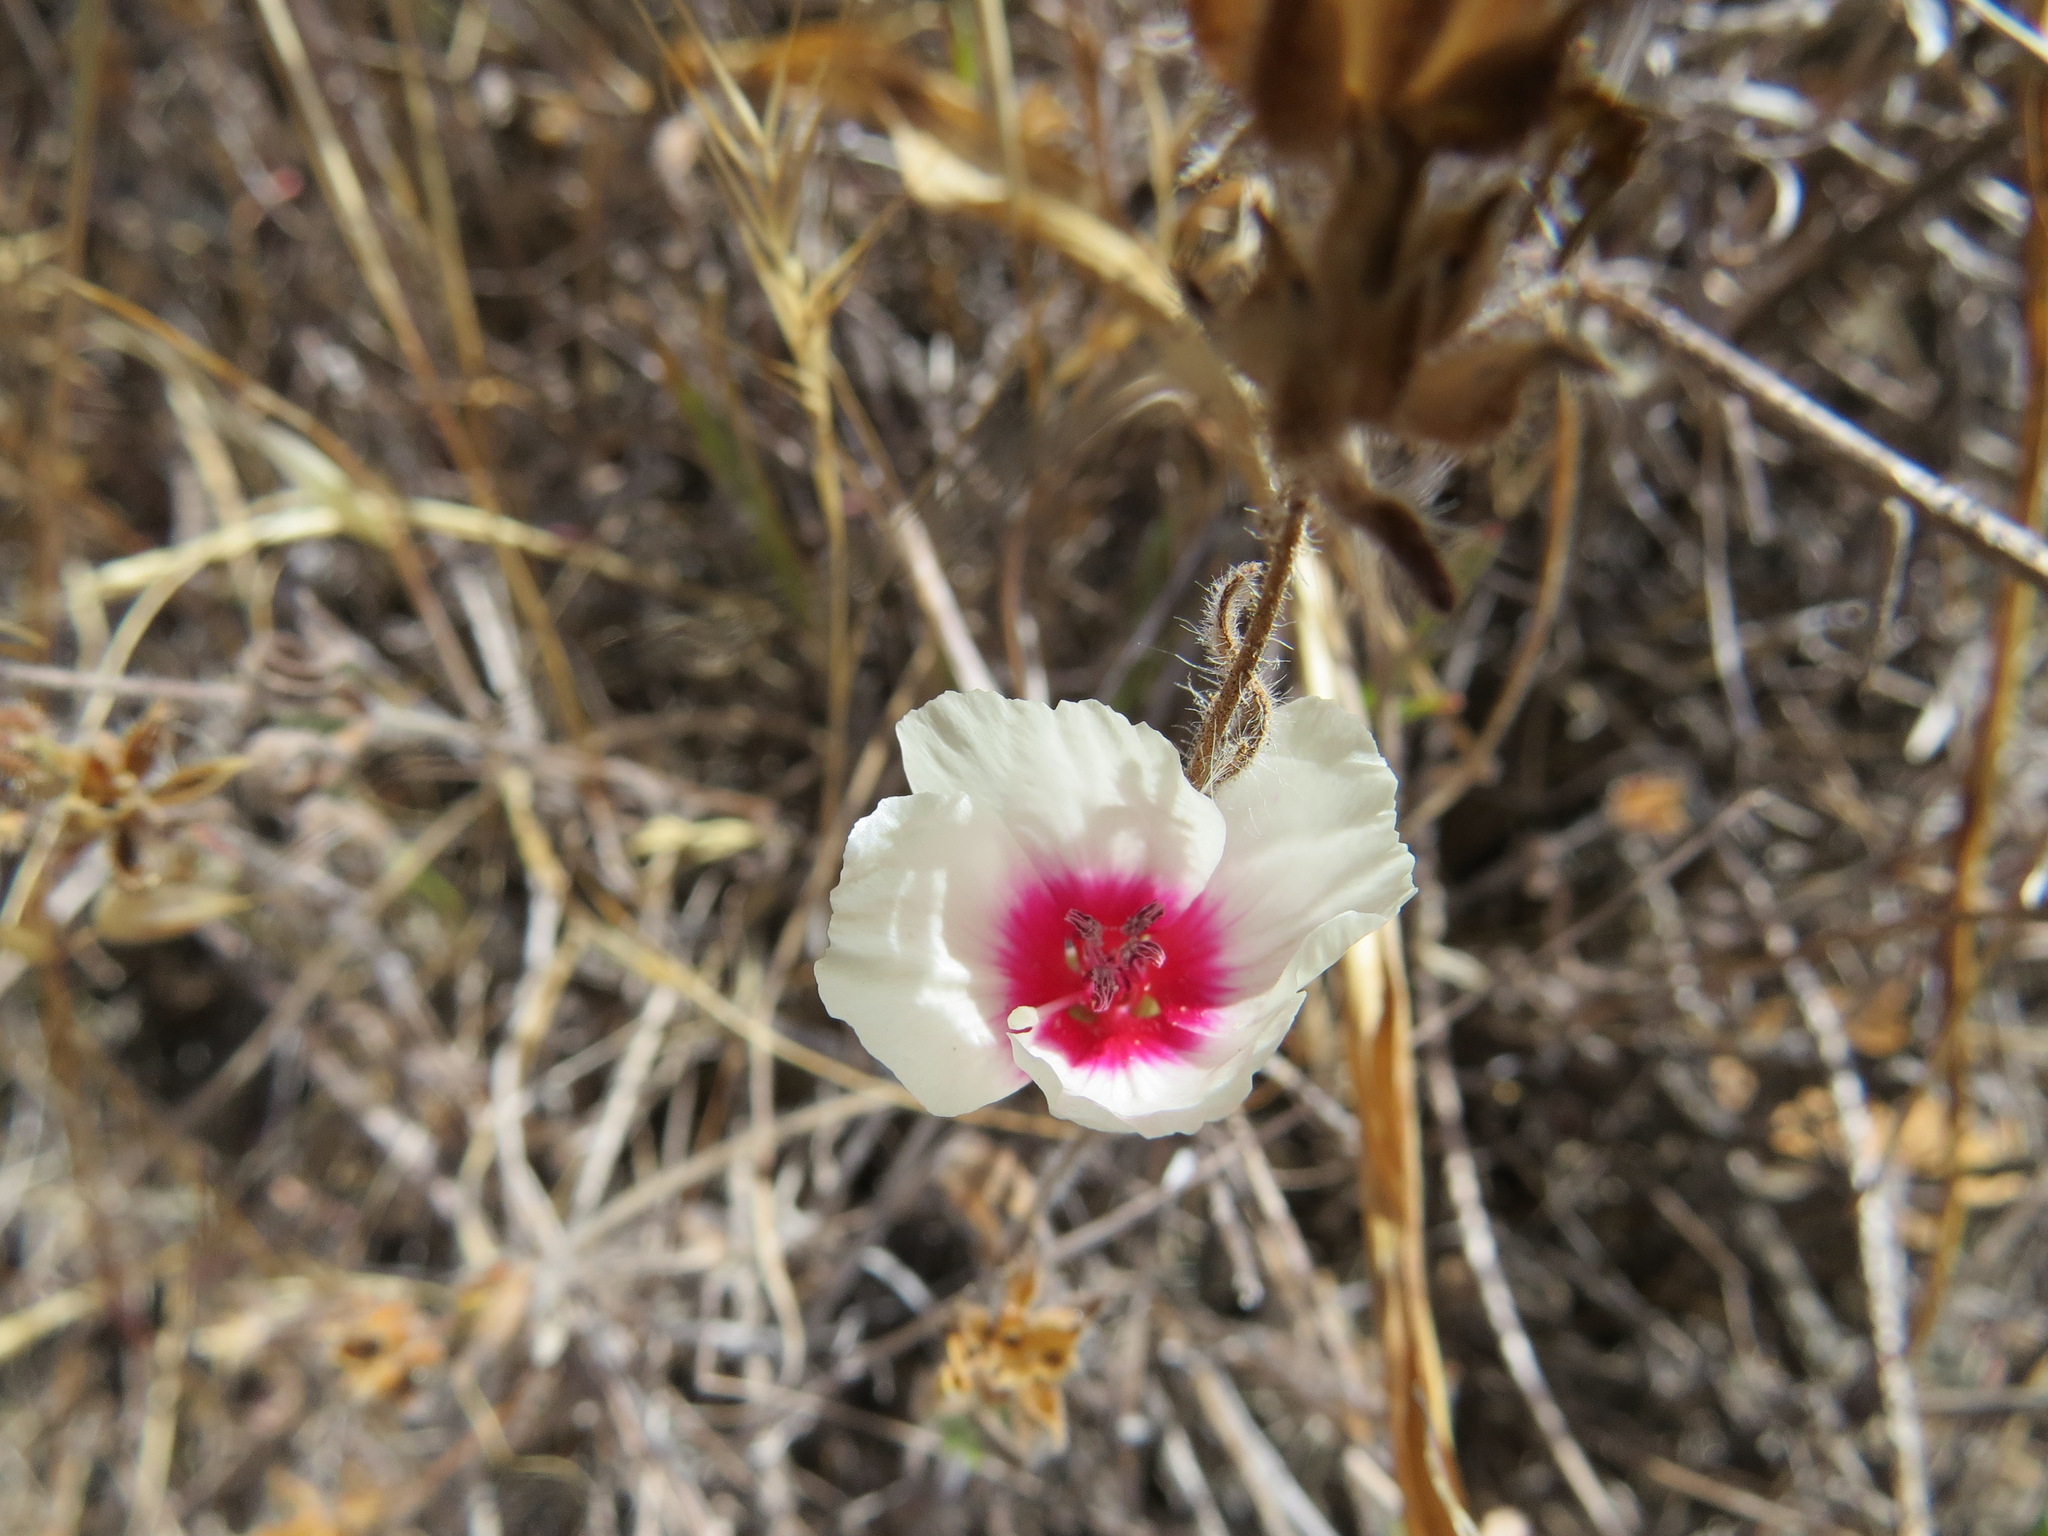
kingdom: Plantae
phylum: Tracheophyta
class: Magnoliopsida
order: Myrtales
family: Onagraceae
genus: Clarkia
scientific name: Clarkia rubicunda
